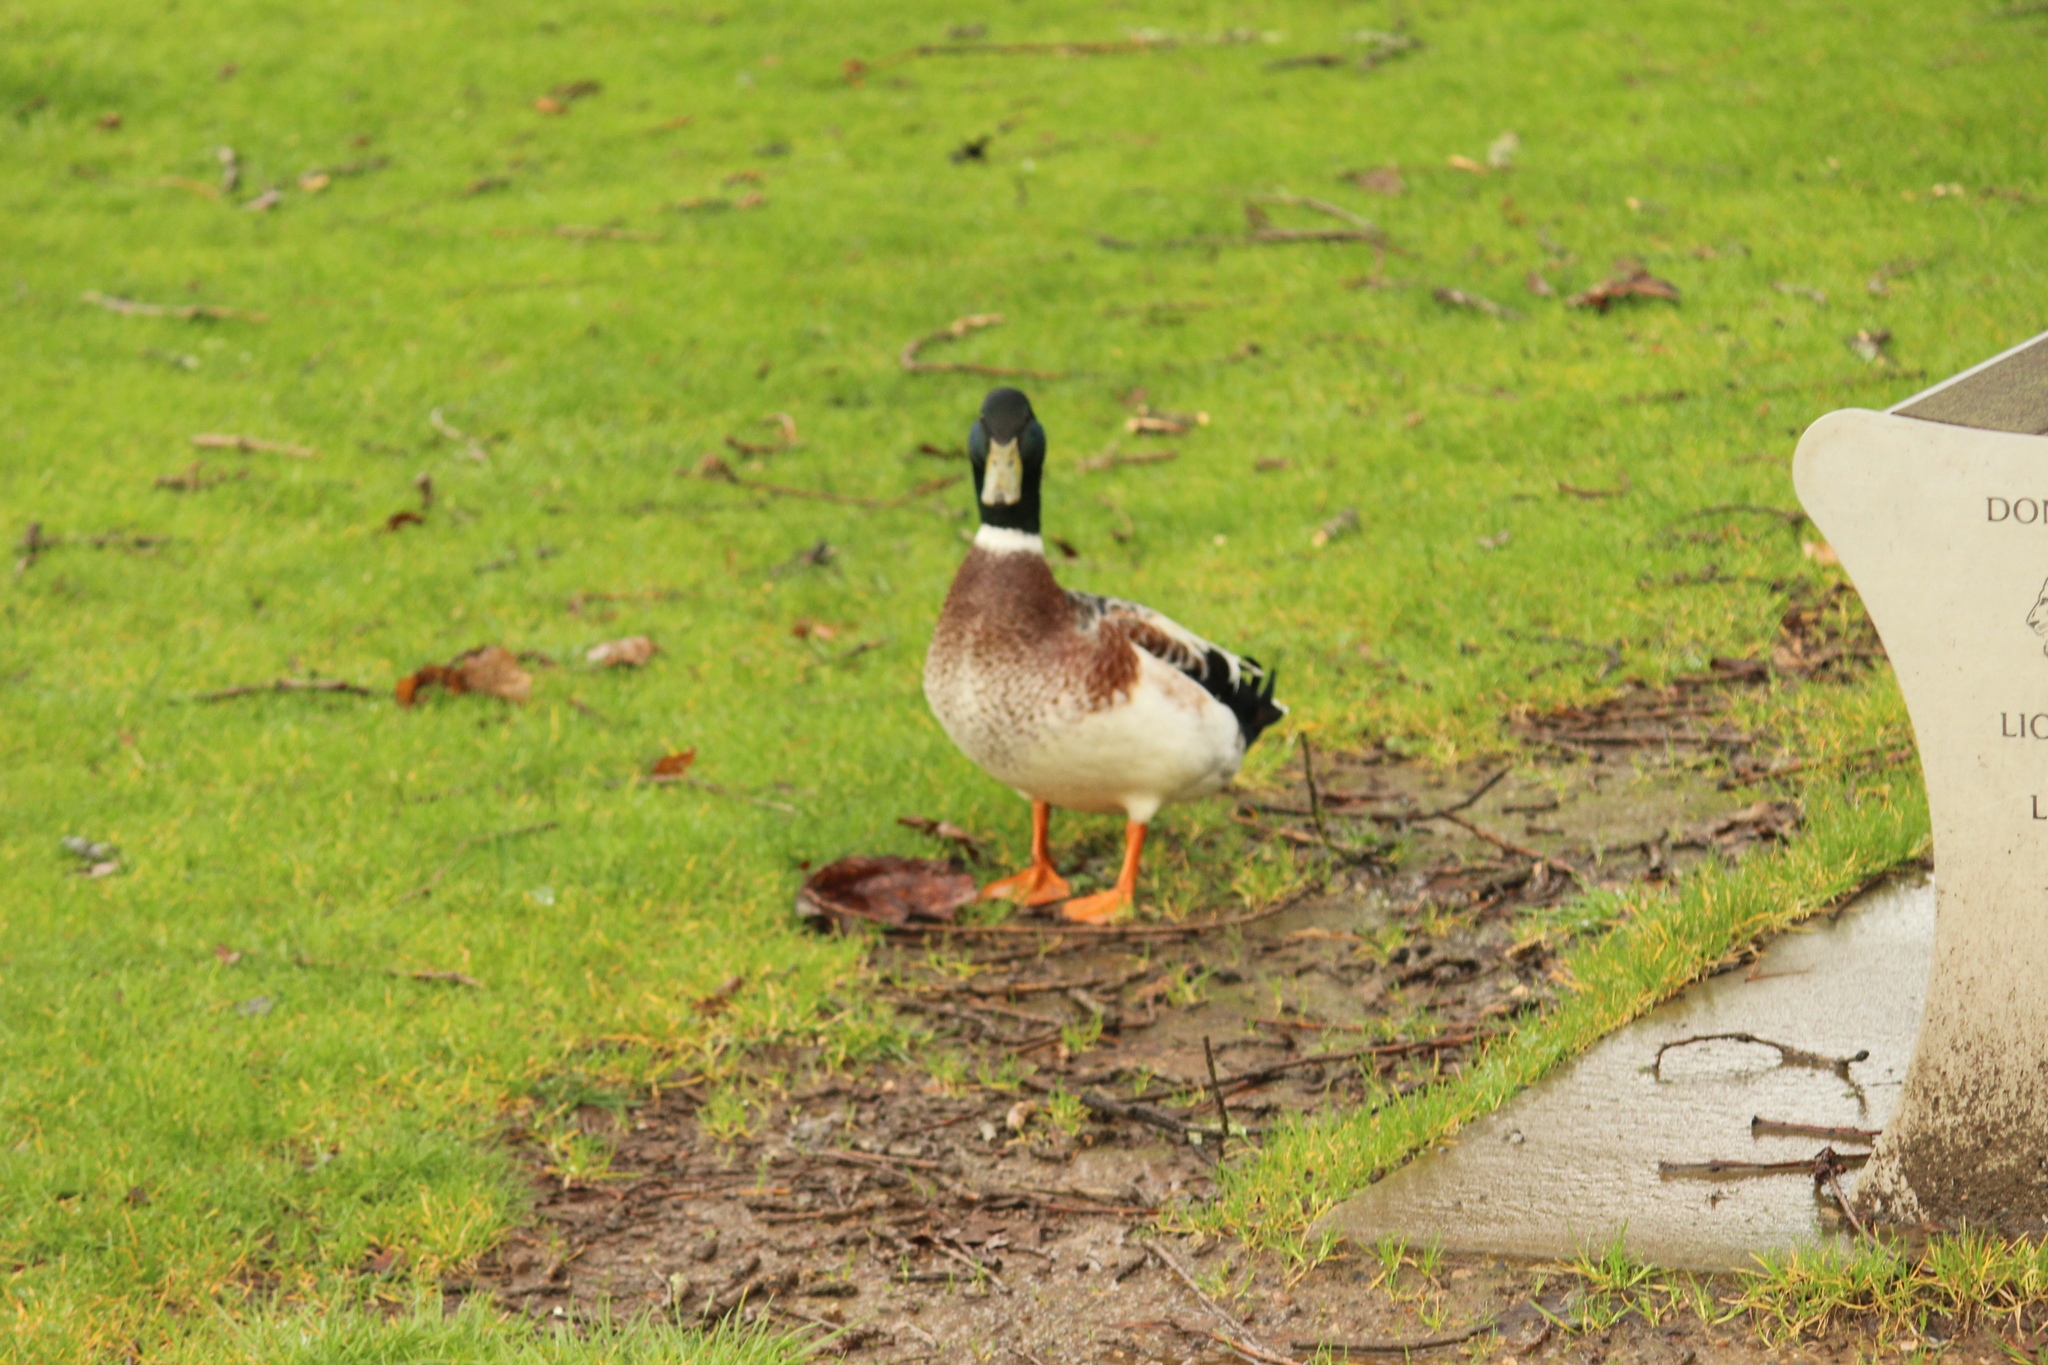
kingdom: Animalia
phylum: Chordata
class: Aves
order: Anseriformes
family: Anatidae
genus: Anas
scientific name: Anas platyrhynchos
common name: Mallard
